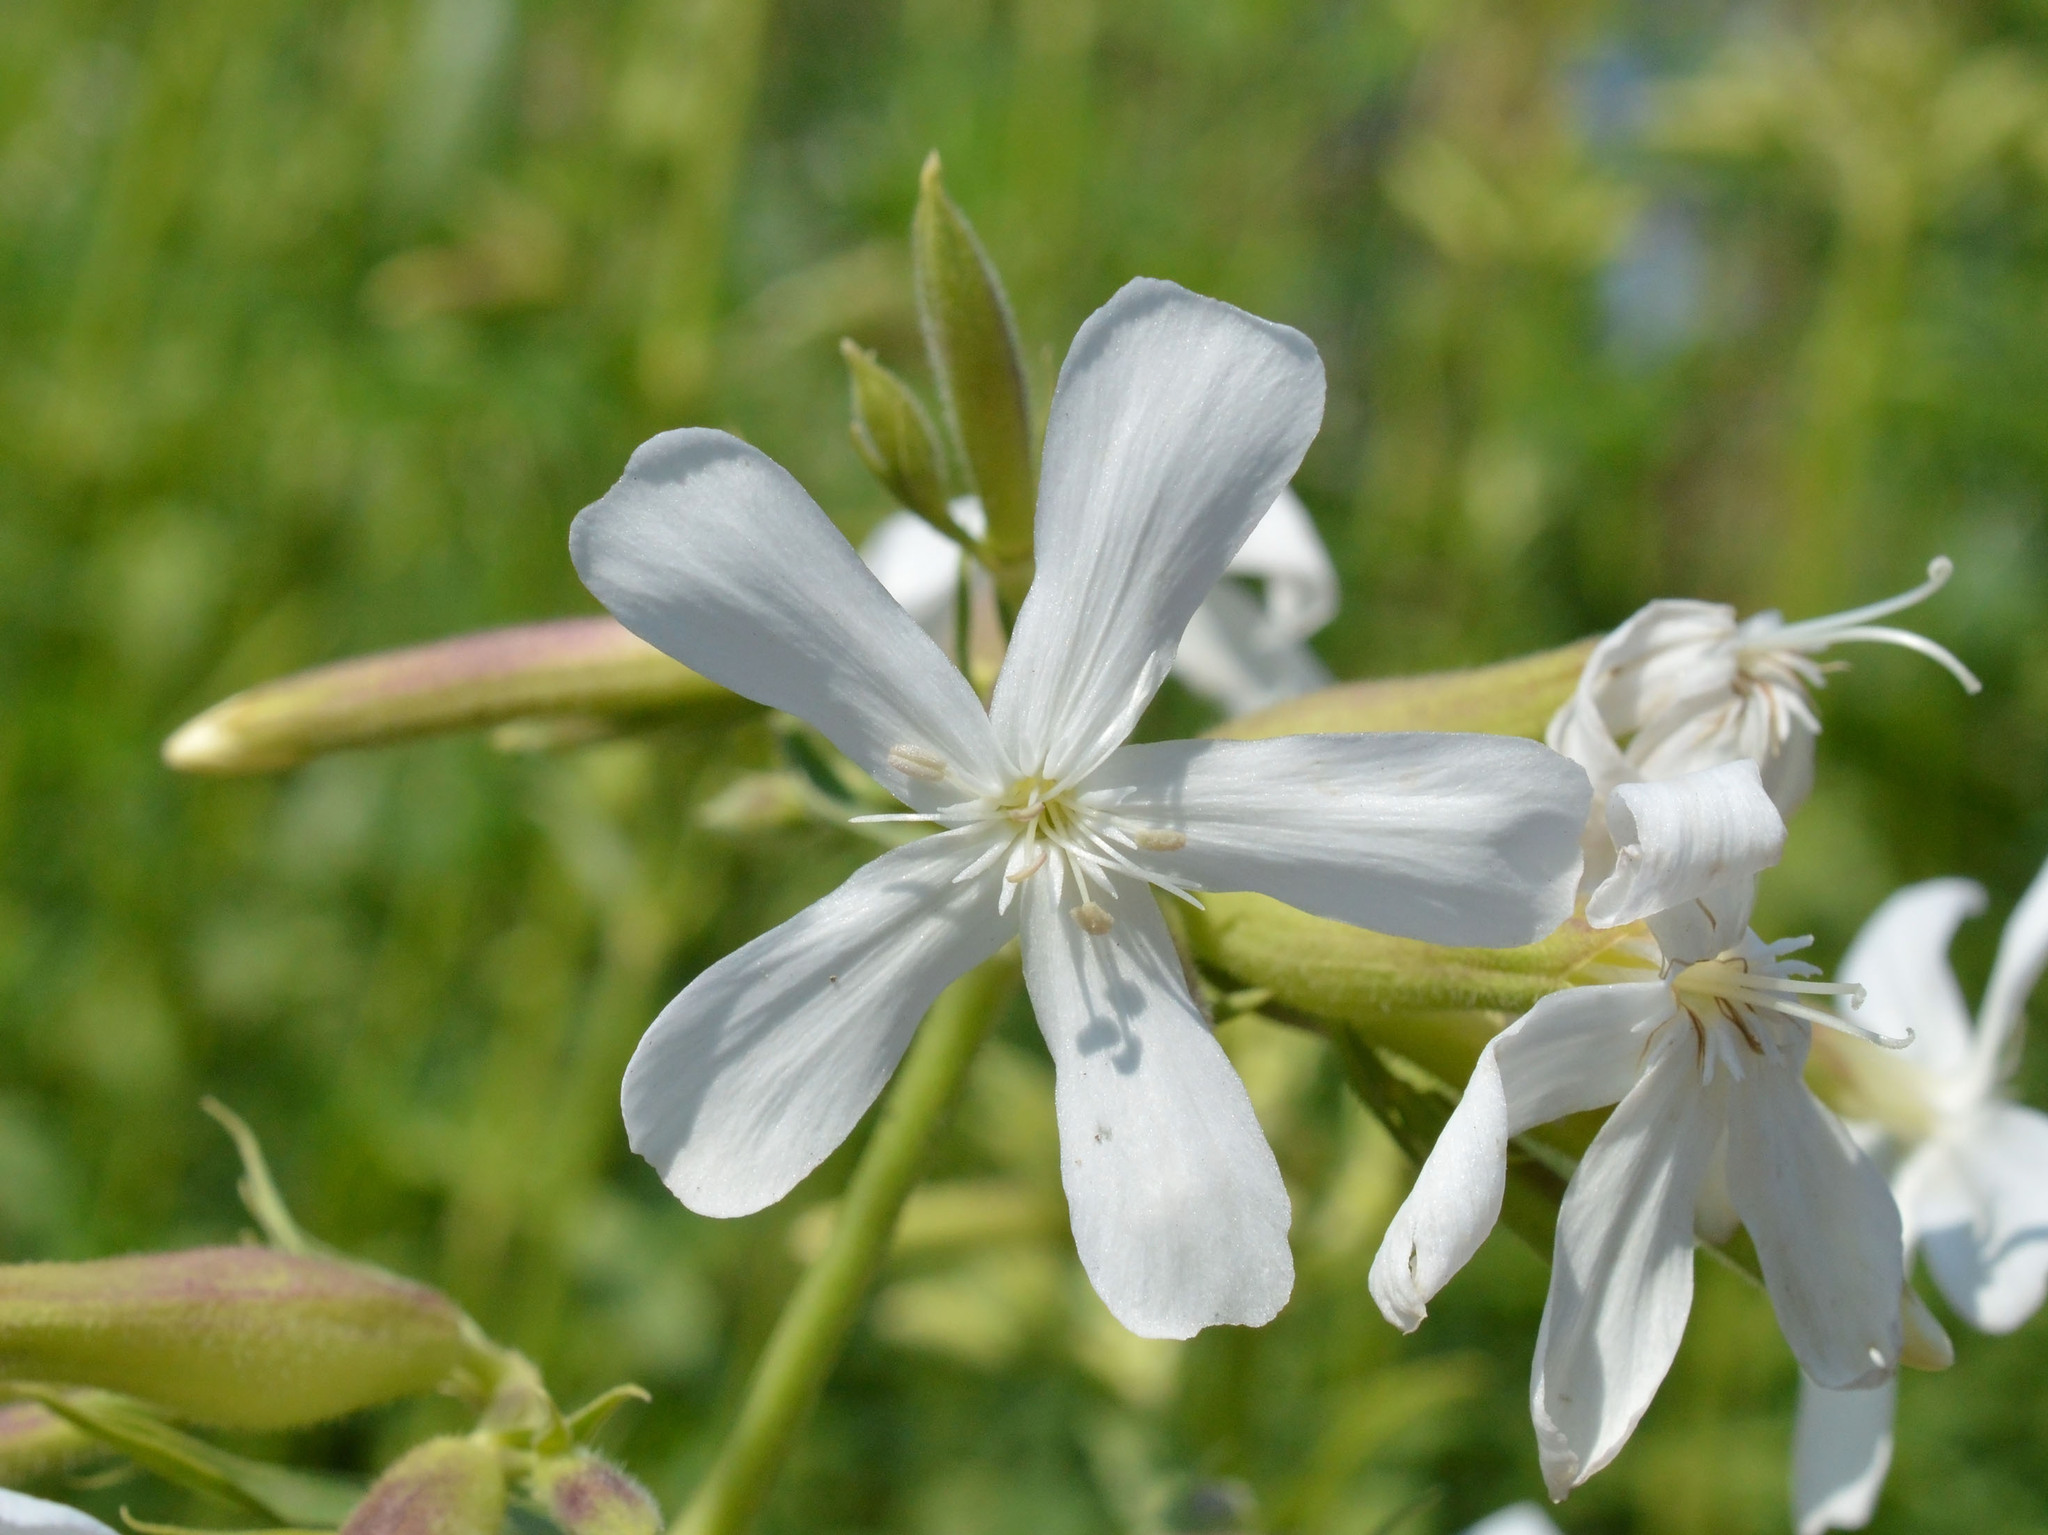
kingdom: Plantae
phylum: Tracheophyta
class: Magnoliopsida
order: Caryophyllales
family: Caryophyllaceae
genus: Saponaria
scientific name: Saponaria officinalis
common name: Soapwort
